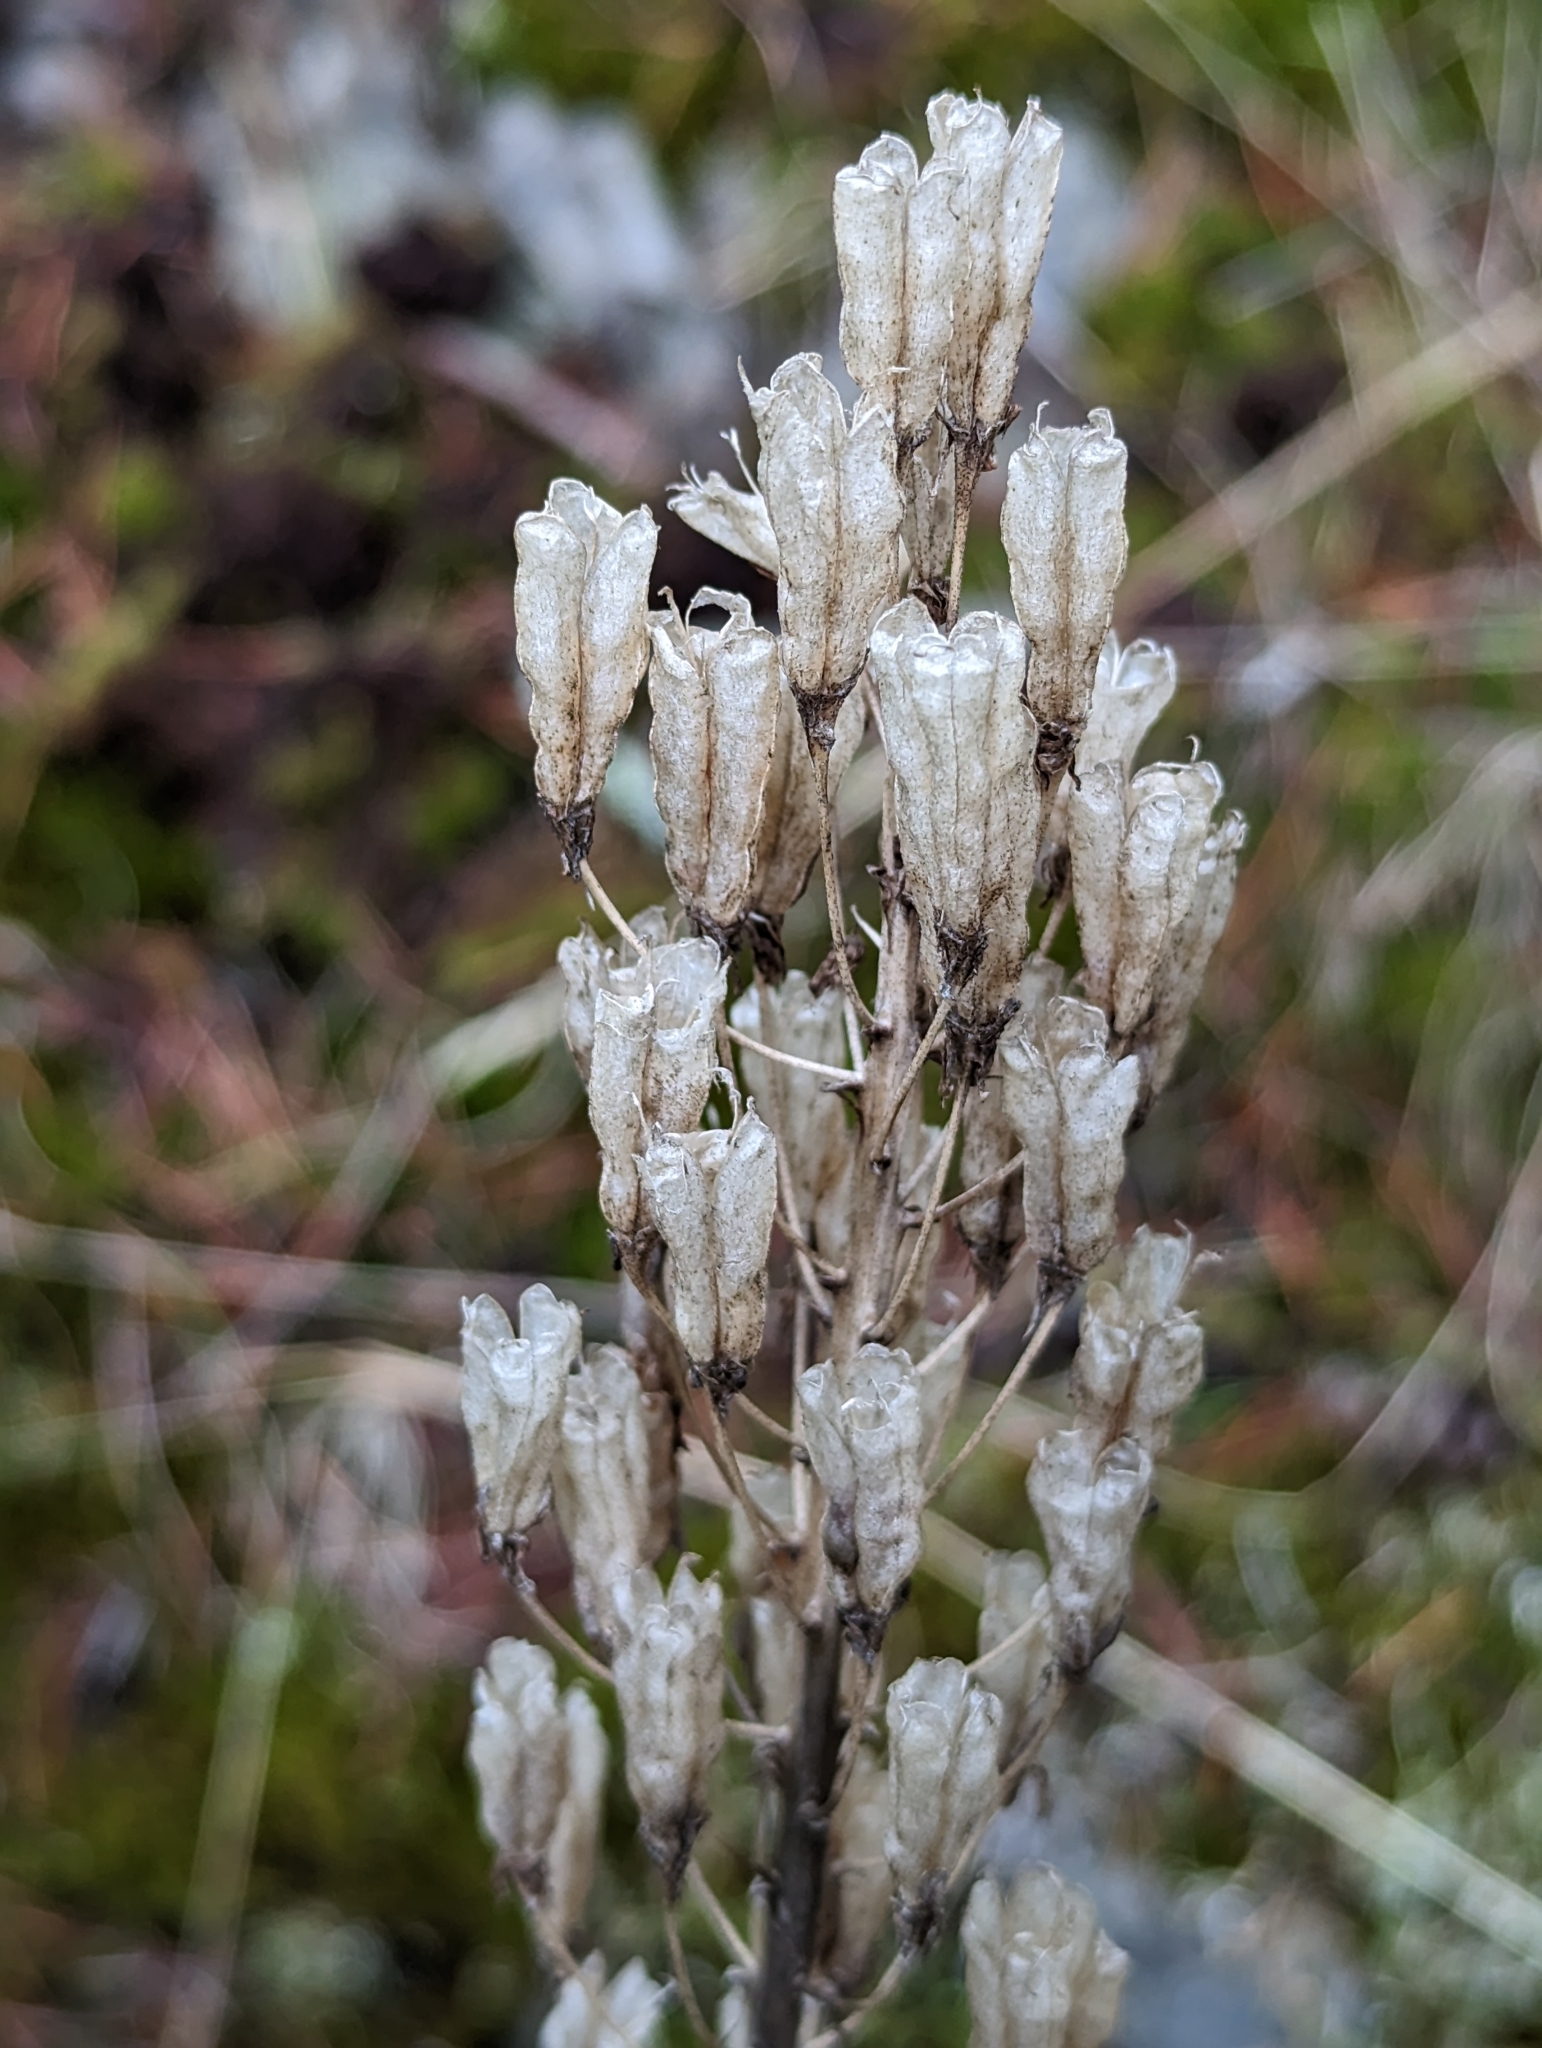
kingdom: Plantae
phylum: Tracheophyta
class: Liliopsida
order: Liliales
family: Melanthiaceae
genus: Toxicoscordion
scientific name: Toxicoscordion venenosum
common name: Meadow death camas
